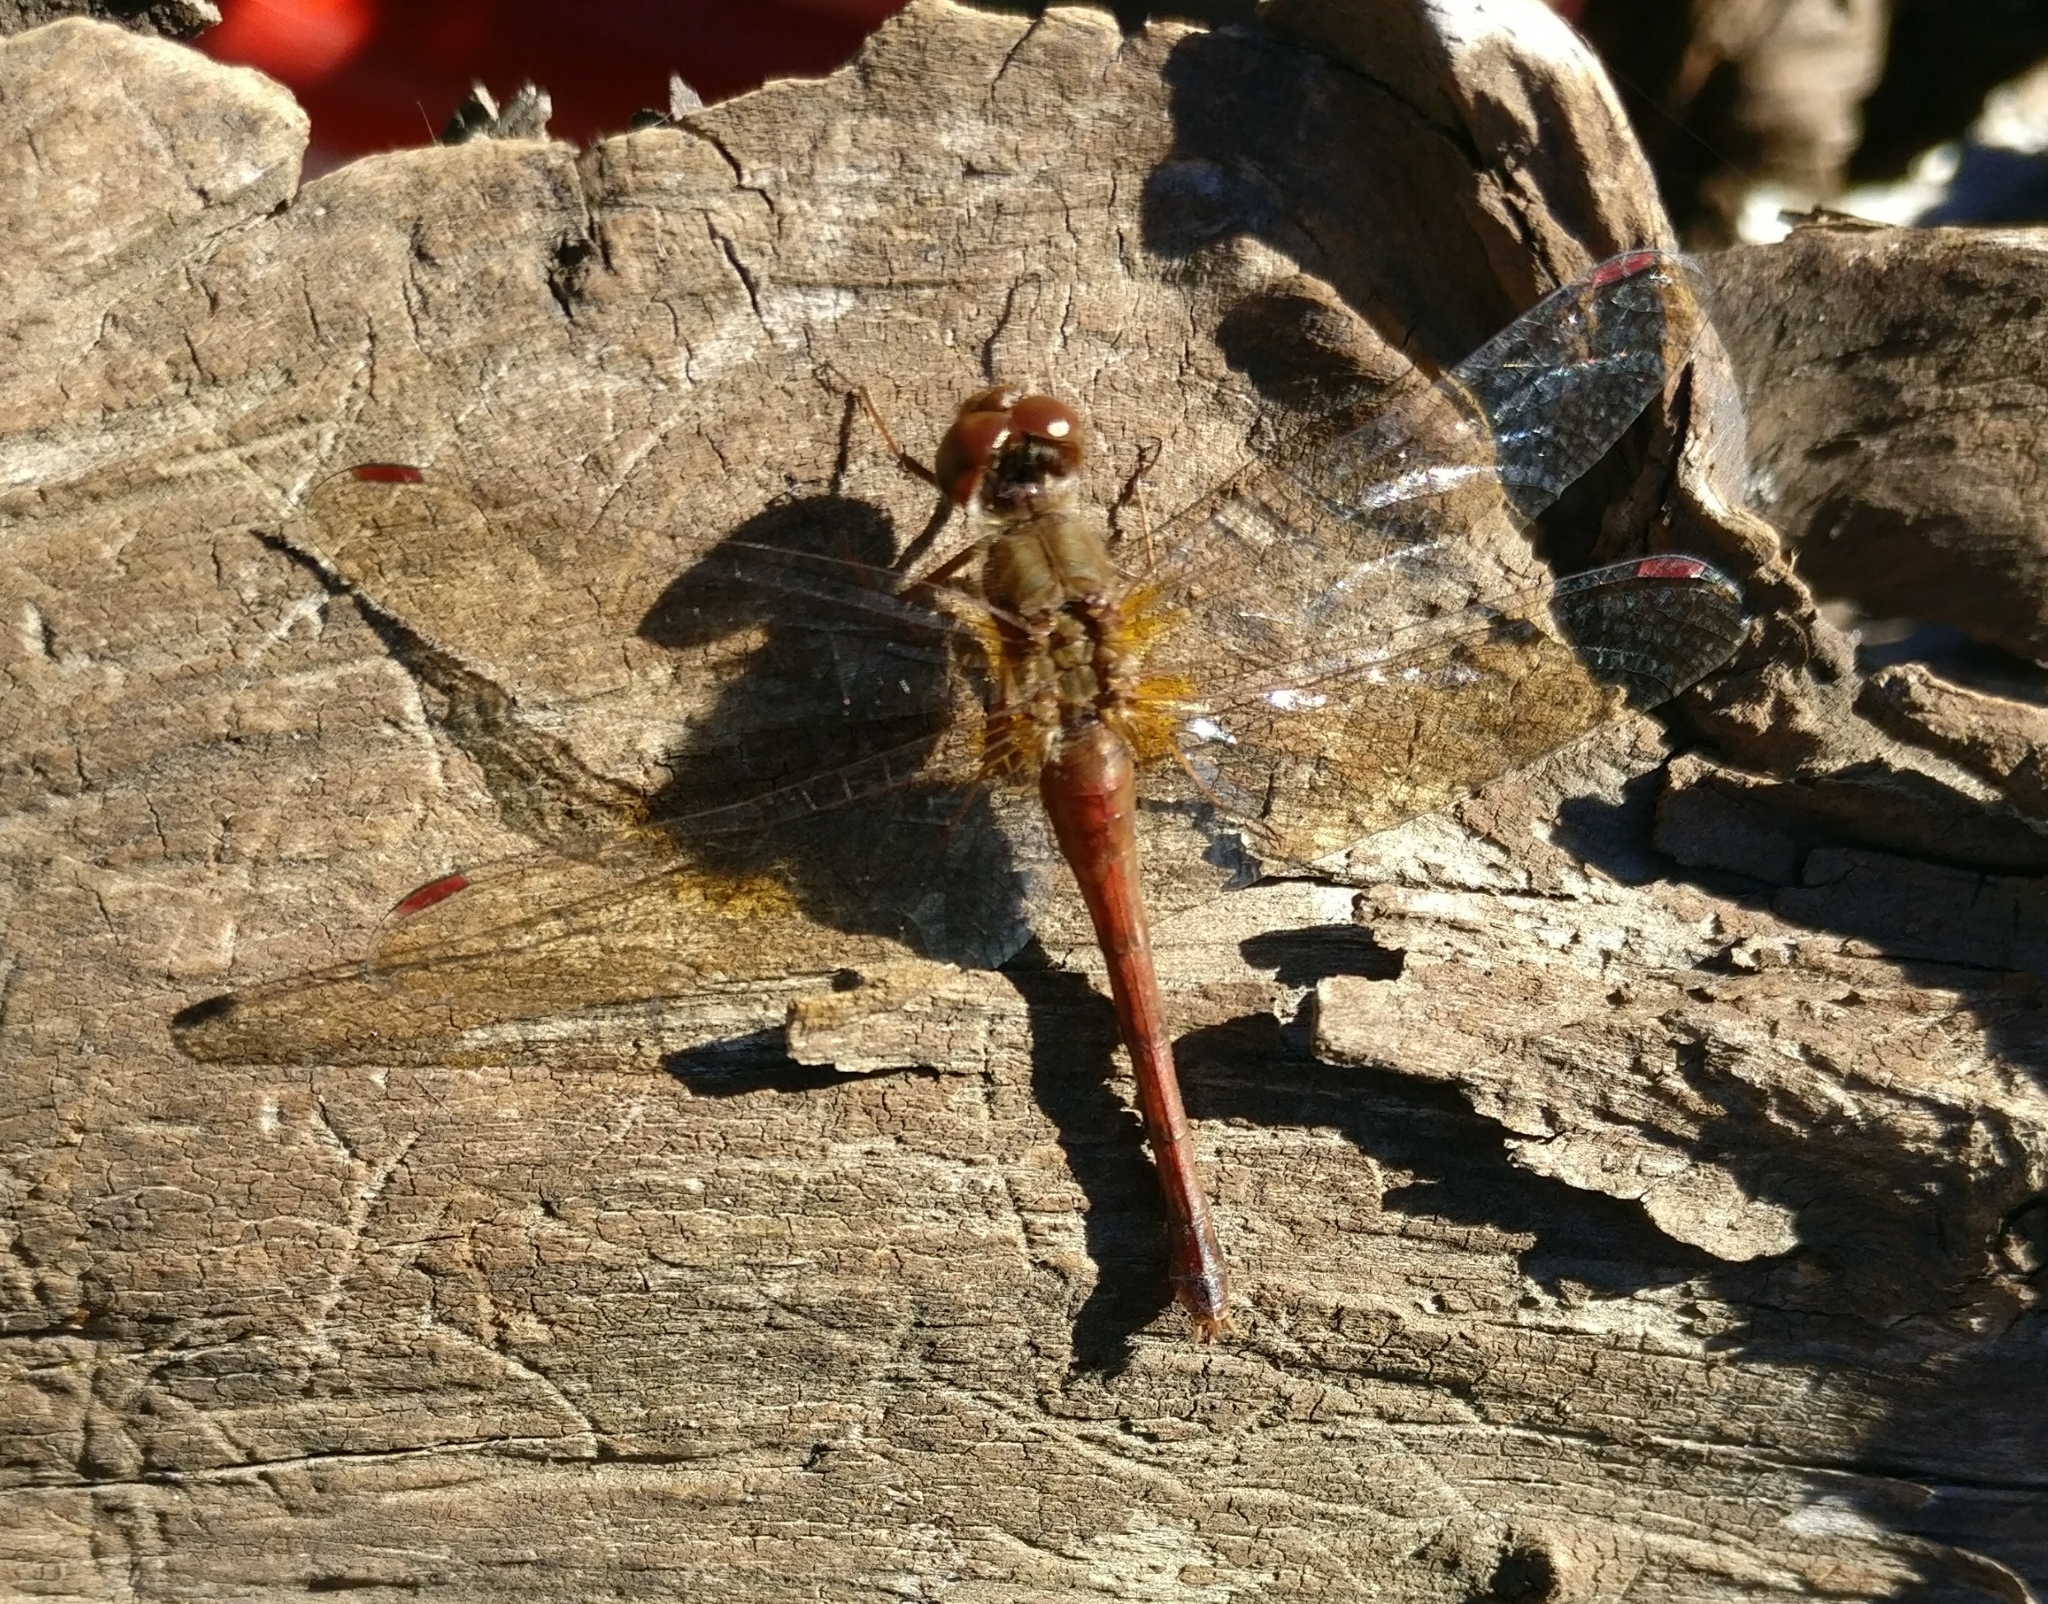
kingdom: Animalia
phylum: Arthropoda
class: Insecta
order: Odonata
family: Libellulidae
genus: Sympetrum
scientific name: Sympetrum vicinum
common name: Autumn meadowhawk
